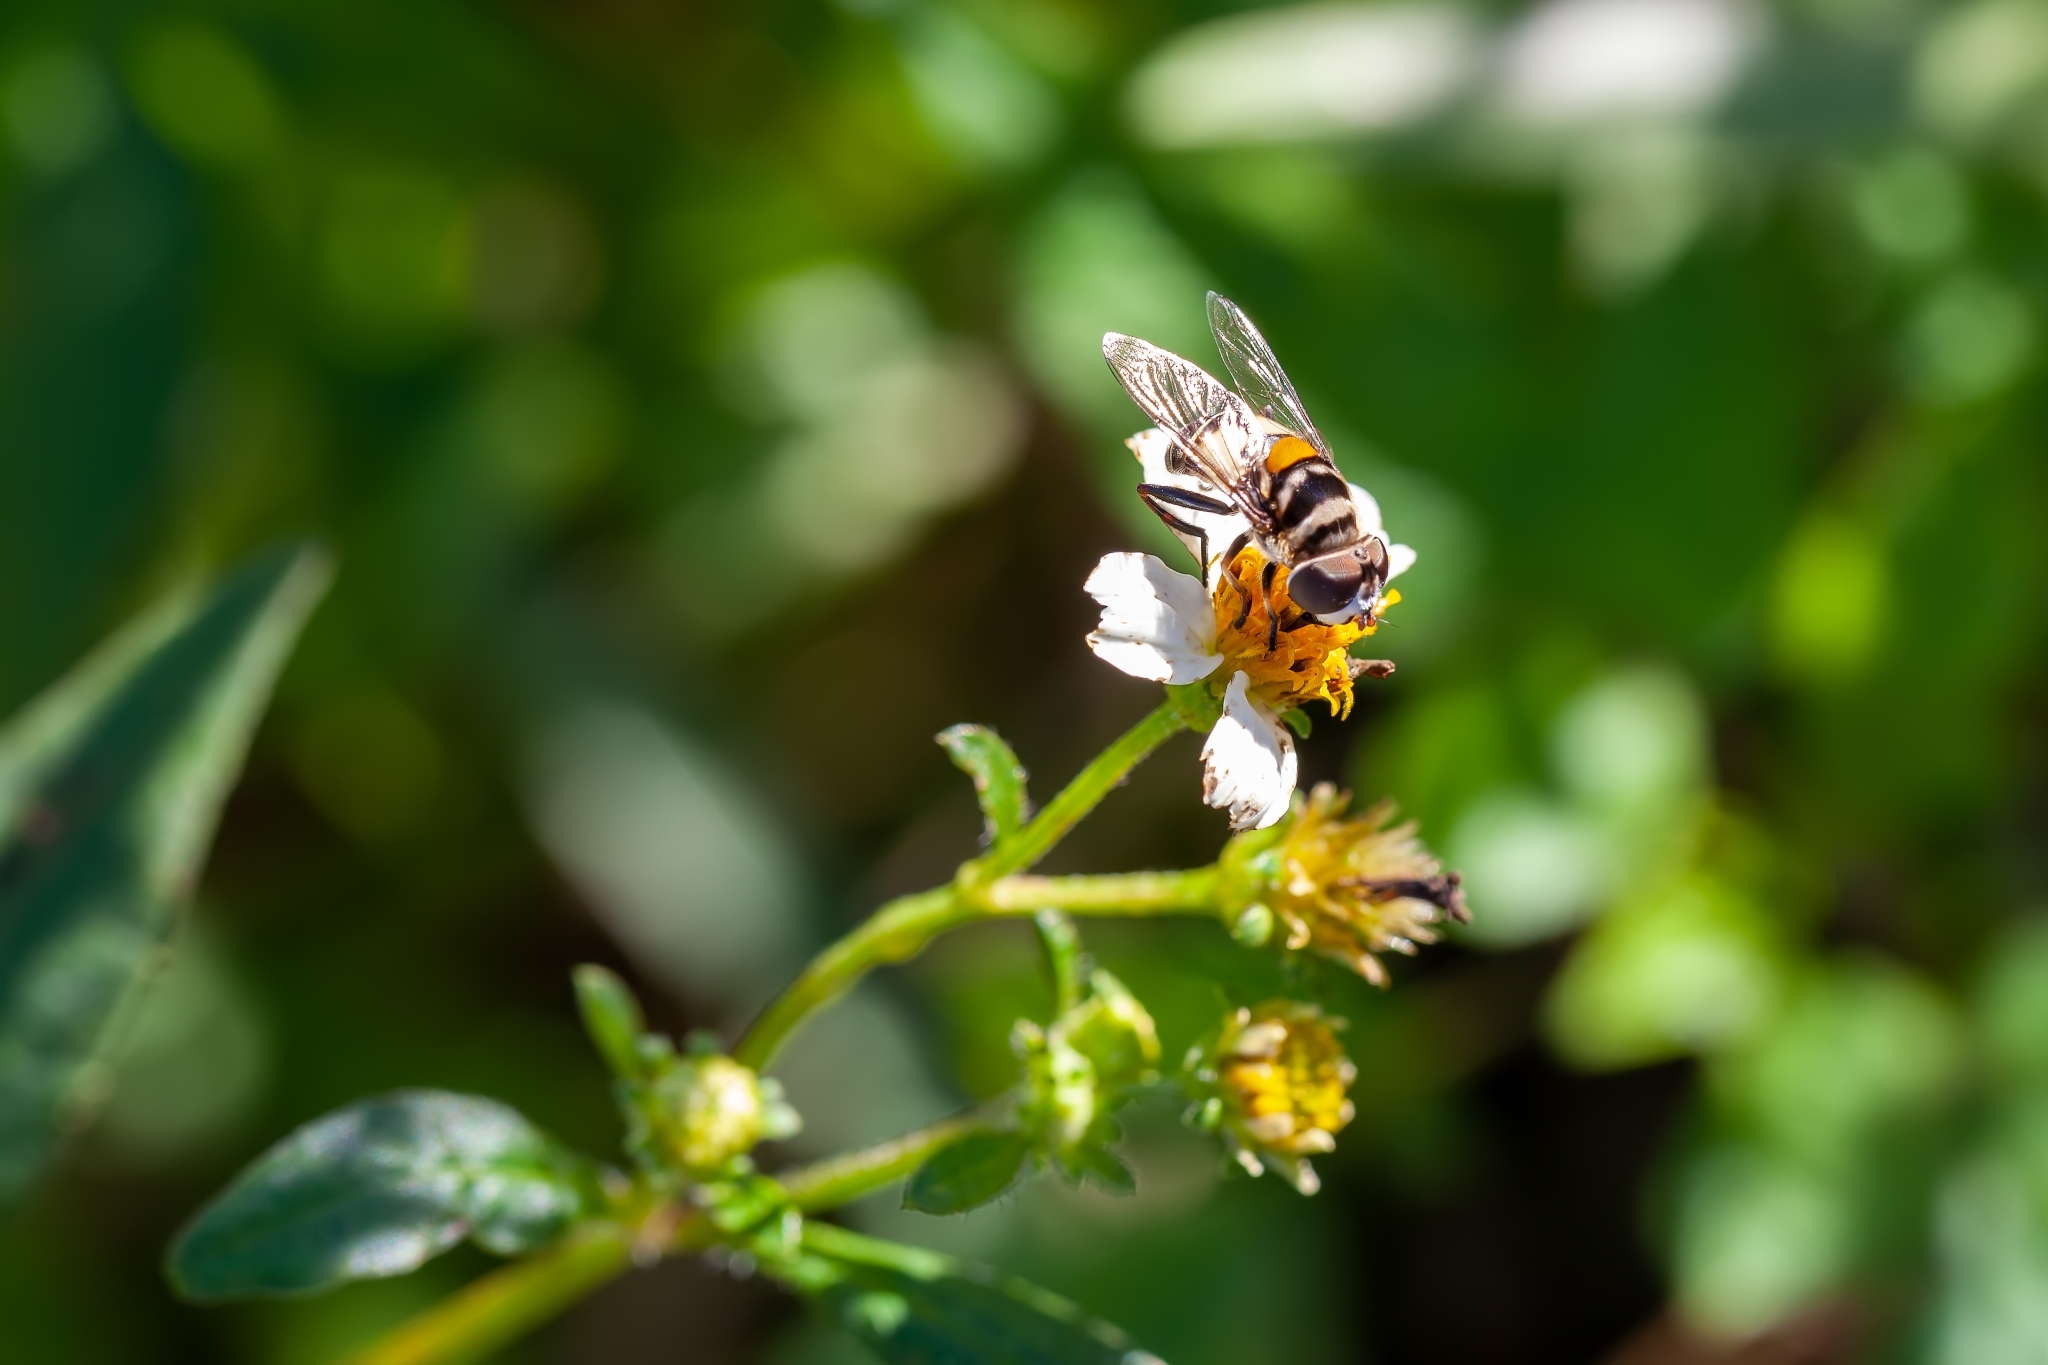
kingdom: Animalia
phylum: Arthropoda
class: Insecta
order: Diptera
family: Syrphidae
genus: Palpada
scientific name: Palpada albifrons
